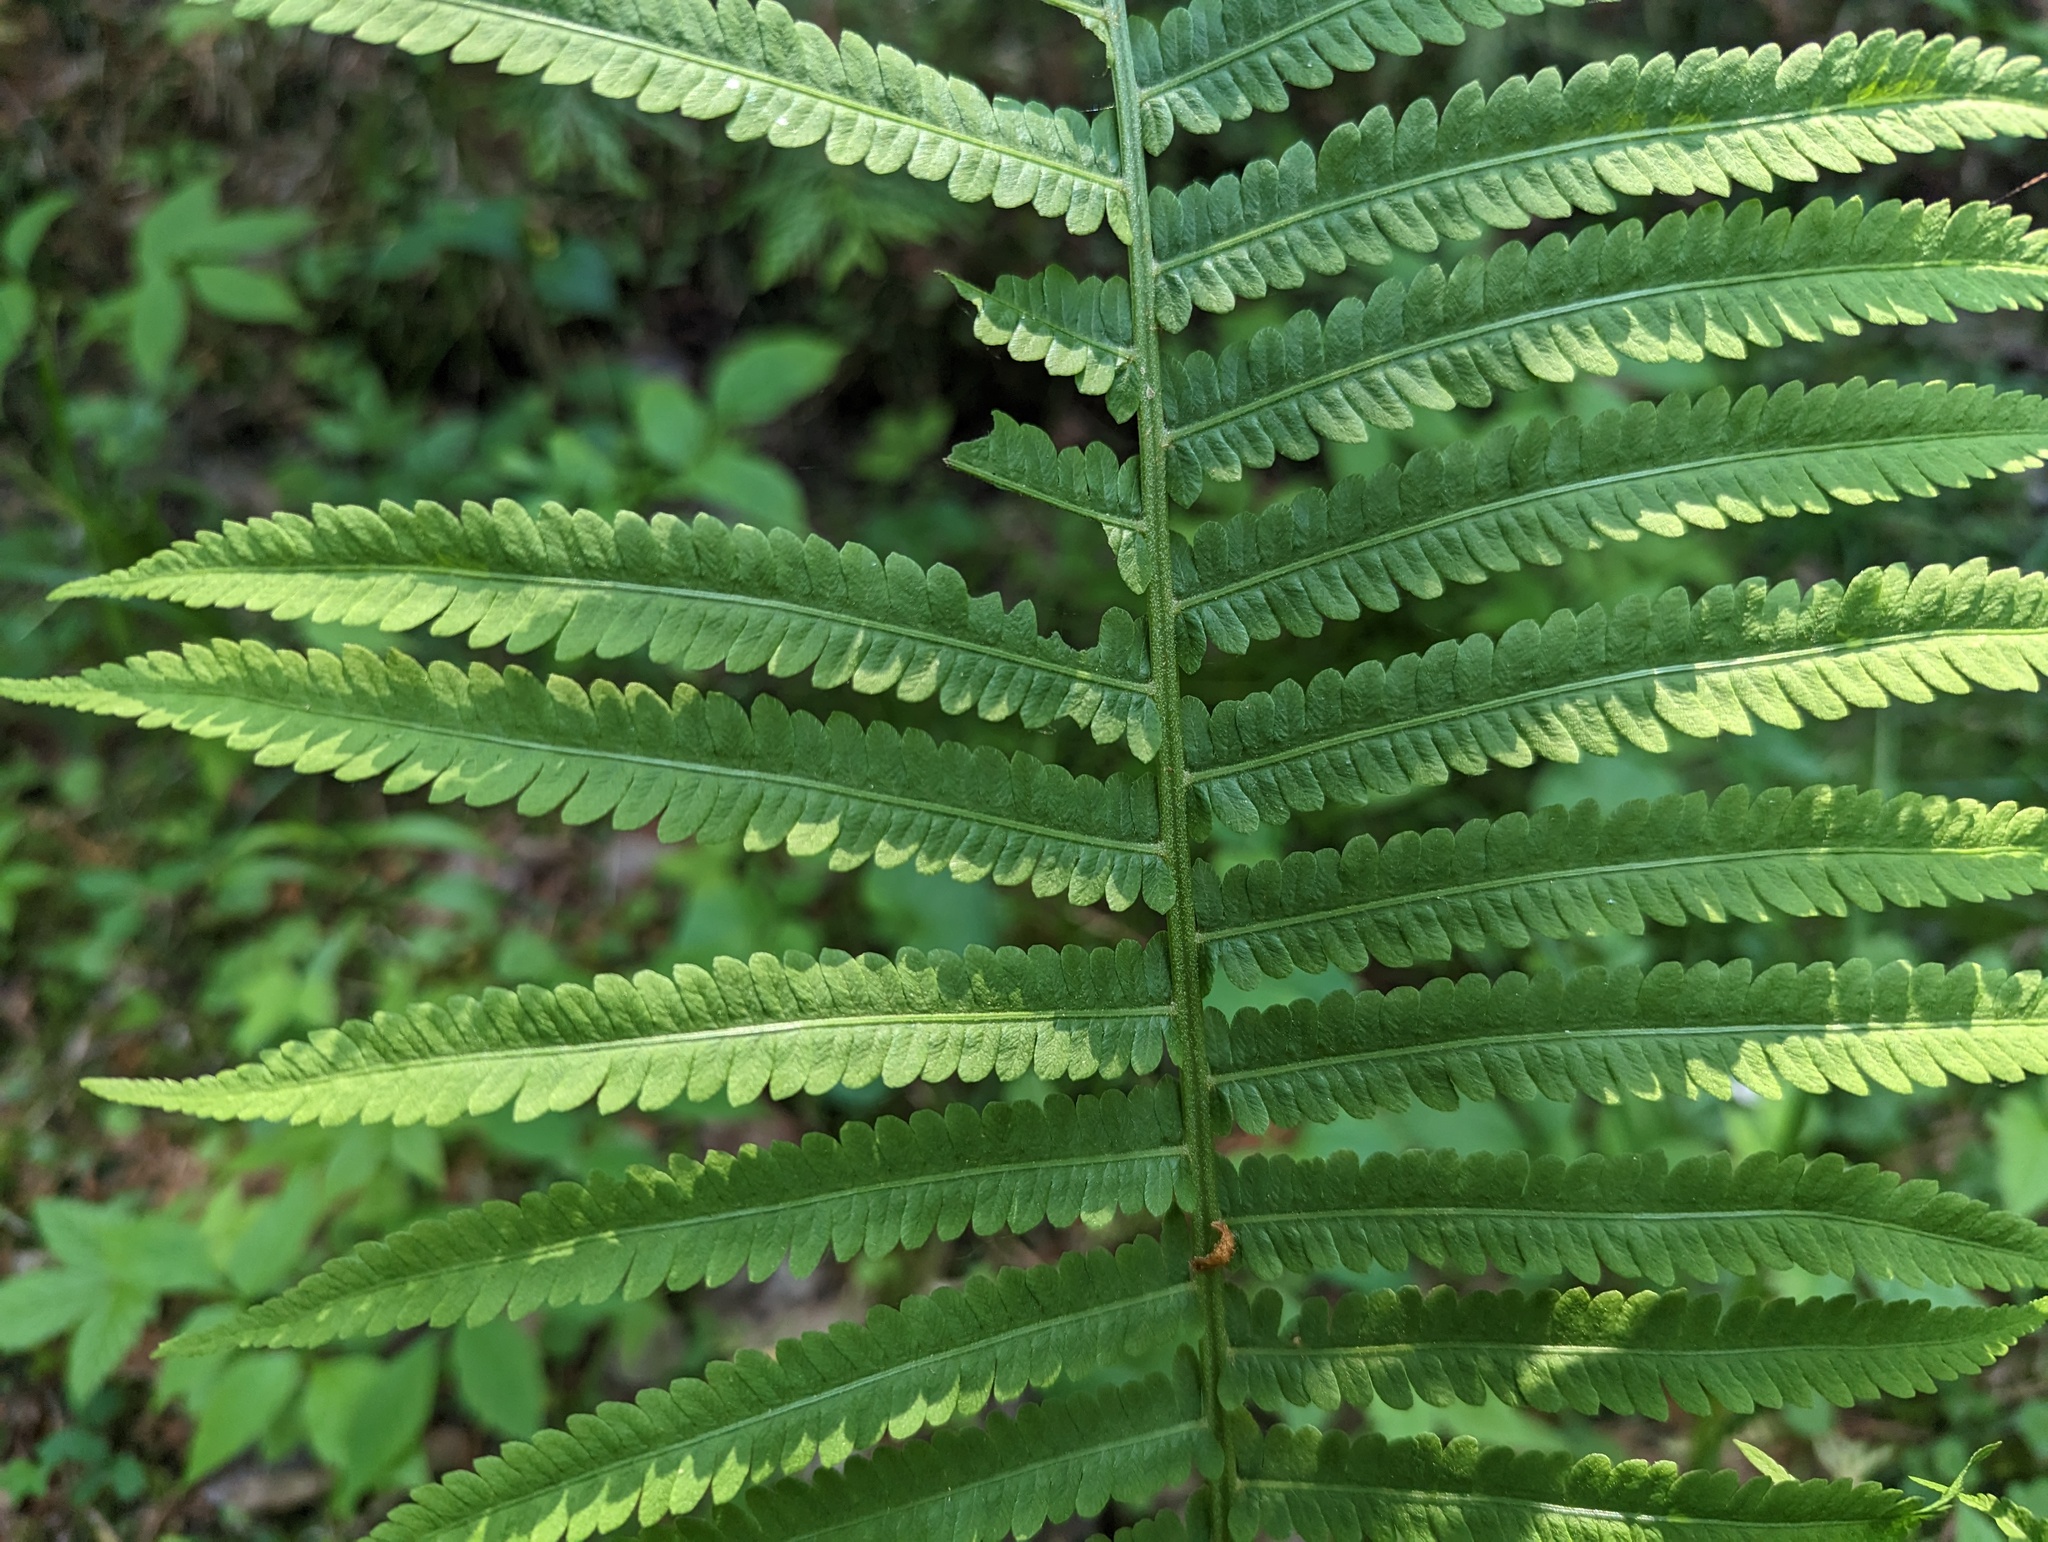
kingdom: Plantae
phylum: Tracheophyta
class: Polypodiopsida
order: Polypodiales
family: Onocleaceae
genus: Matteuccia
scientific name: Matteuccia struthiopteris
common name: Ostrich fern
